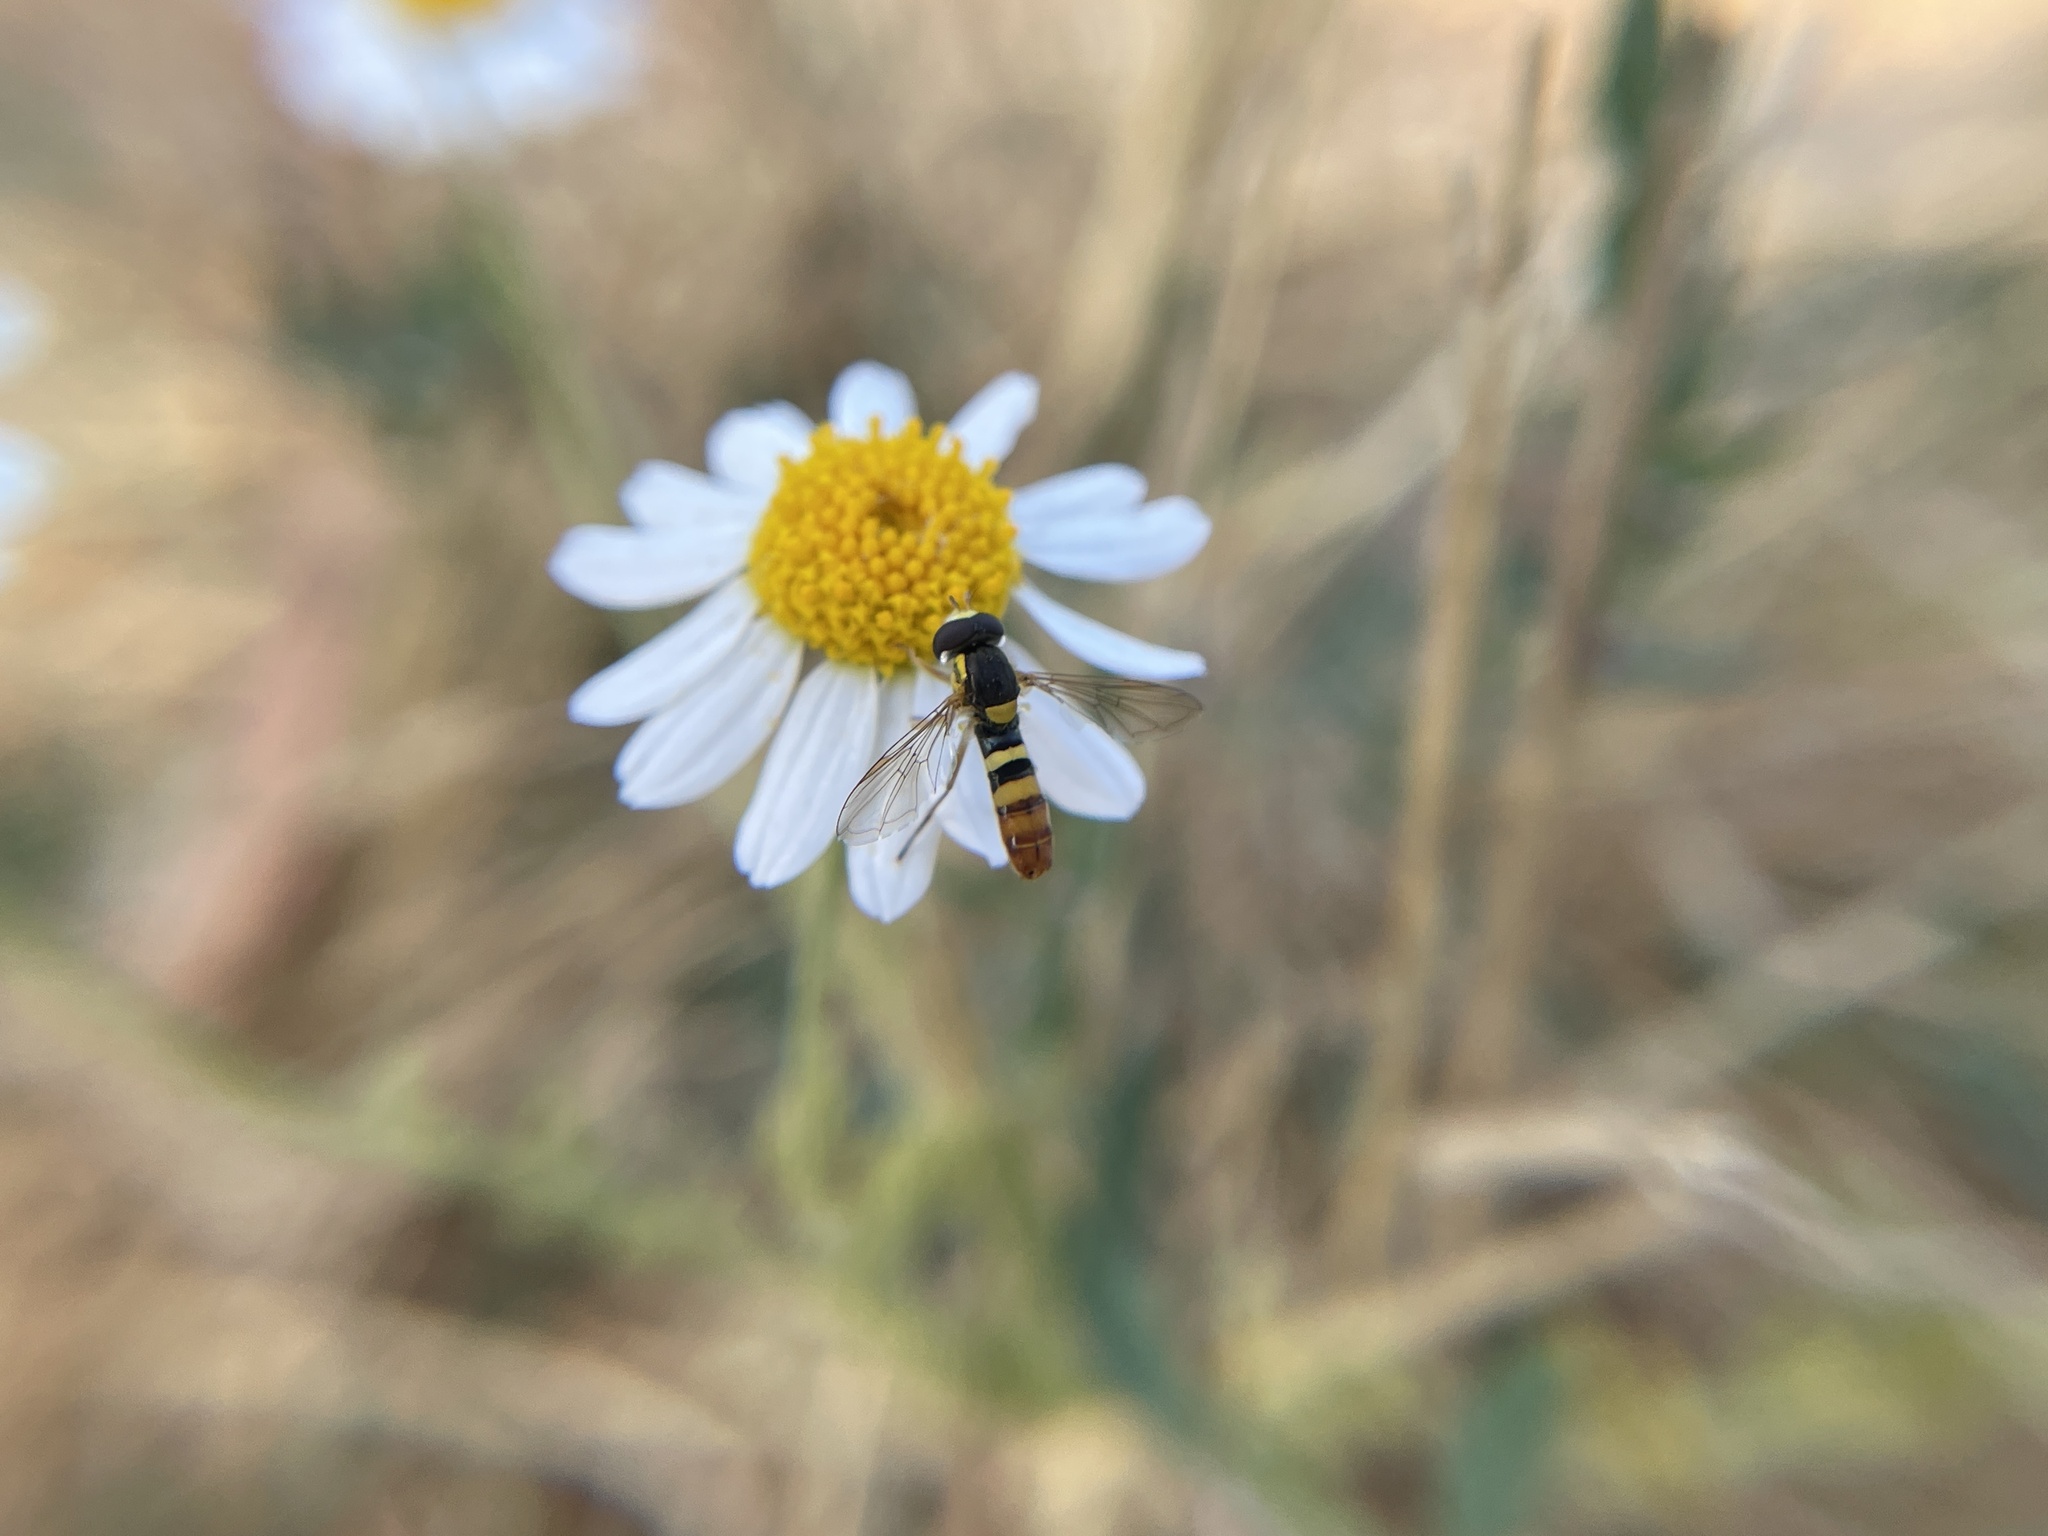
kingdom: Animalia
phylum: Arthropoda
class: Insecta
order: Diptera
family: Syrphidae
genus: Sphaerophoria
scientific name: Sphaerophoria sulphuripes
